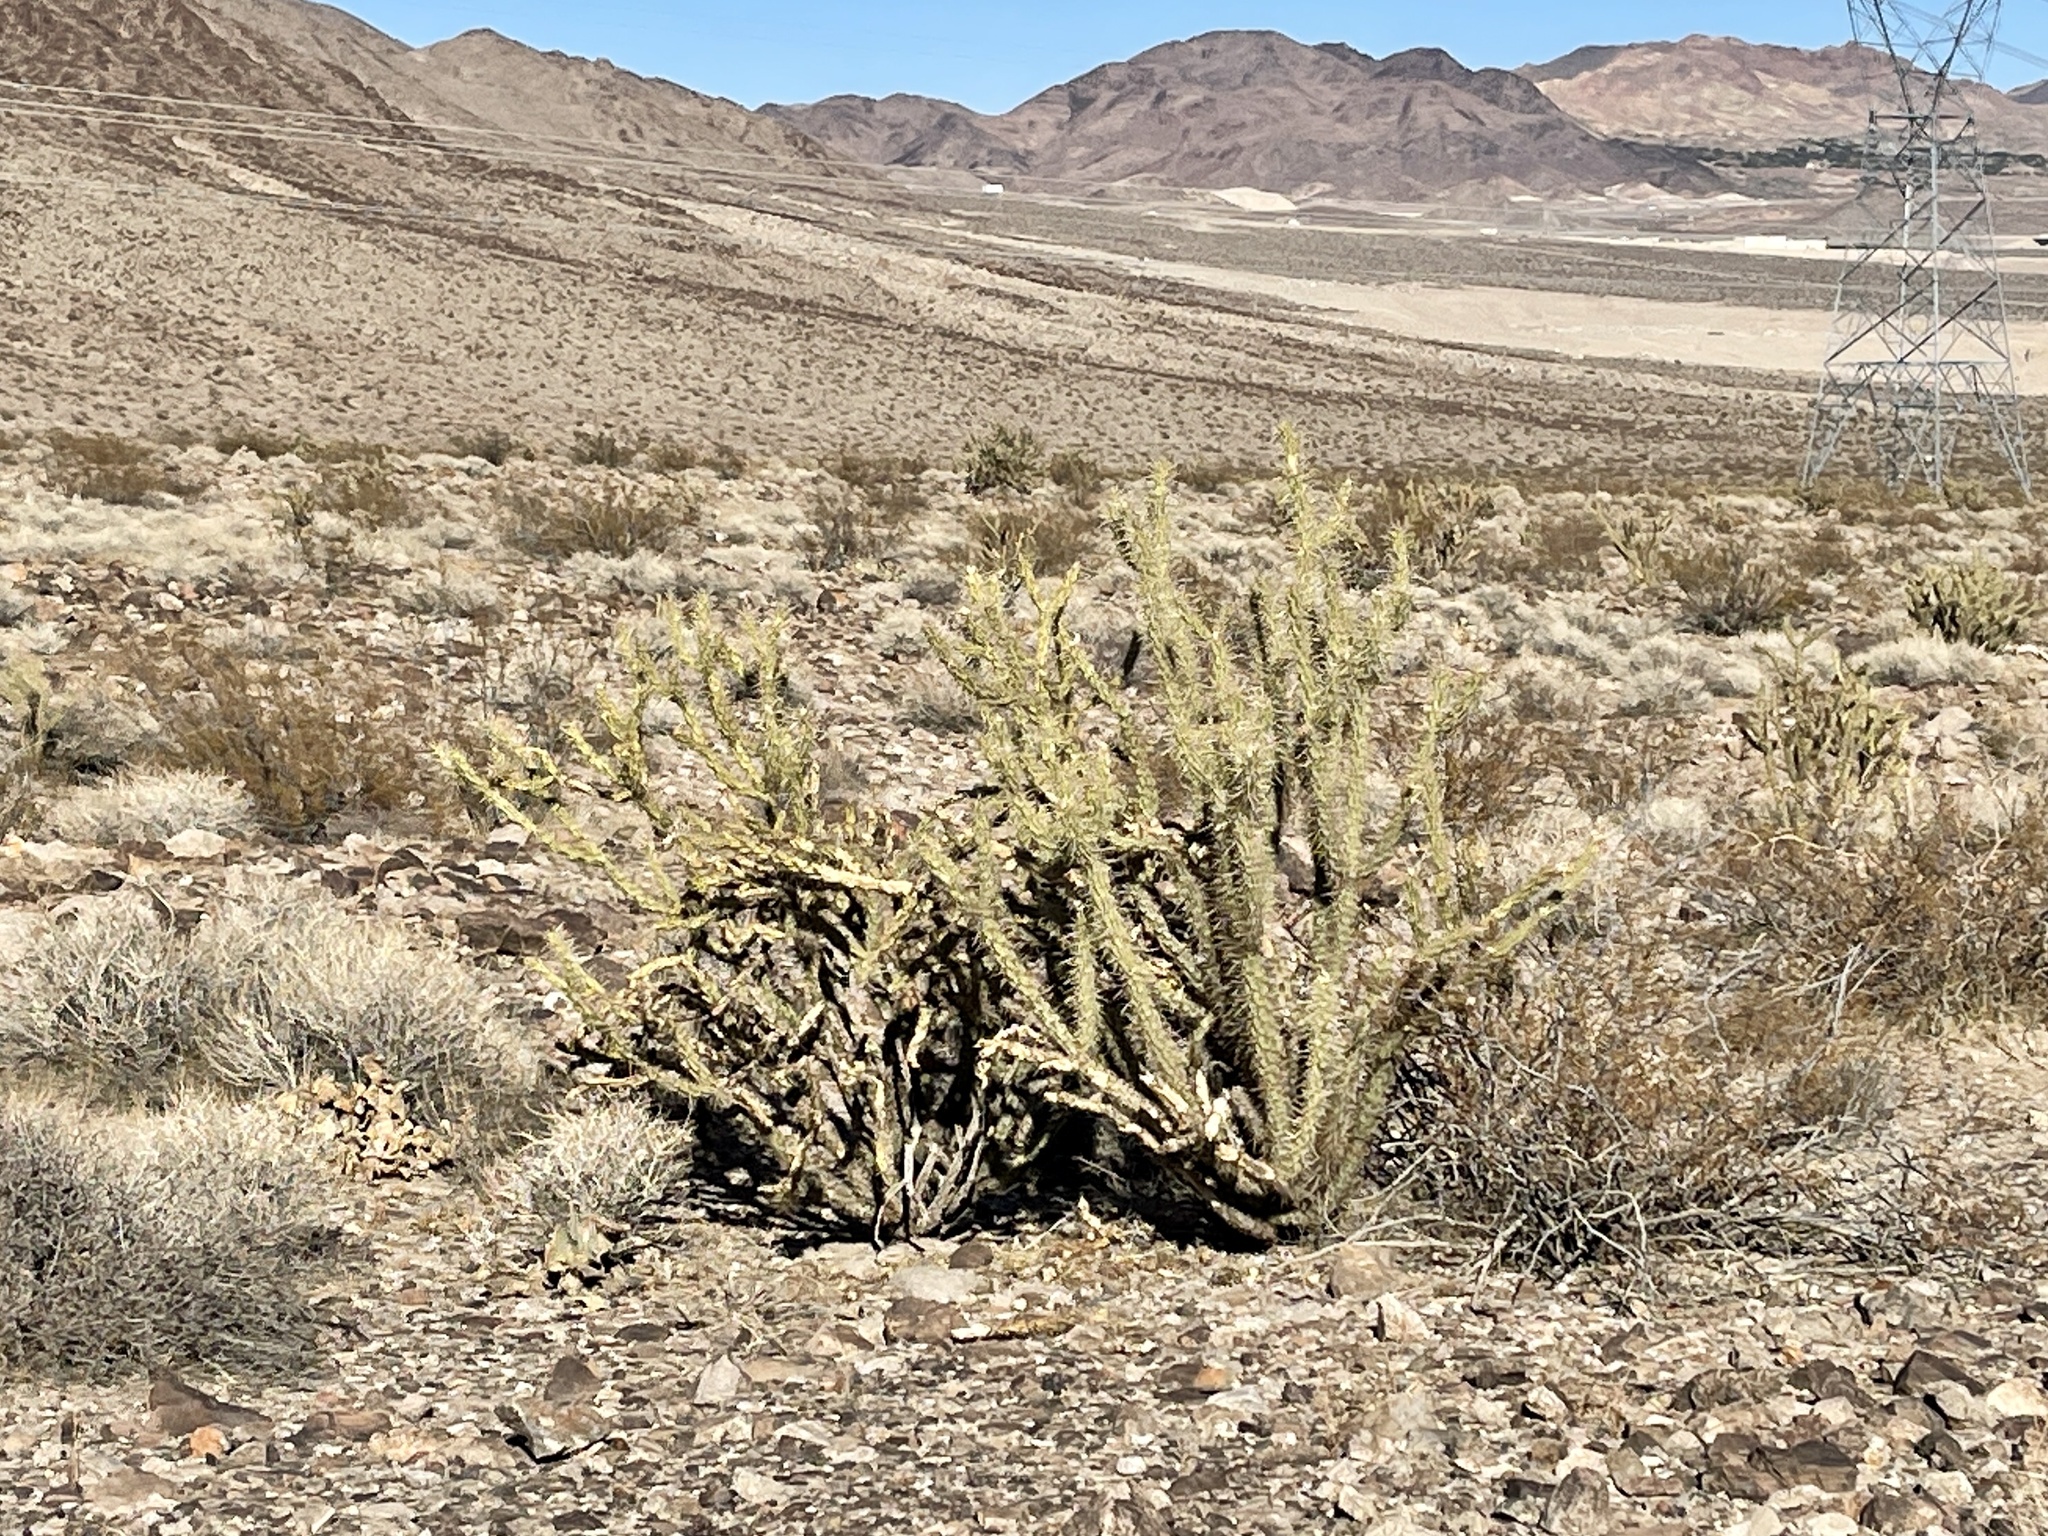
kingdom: Plantae
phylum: Tracheophyta
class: Magnoliopsida
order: Caryophyllales
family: Cactaceae
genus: Cylindropuntia
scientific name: Cylindropuntia acanthocarpa
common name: Buckhorn cholla
